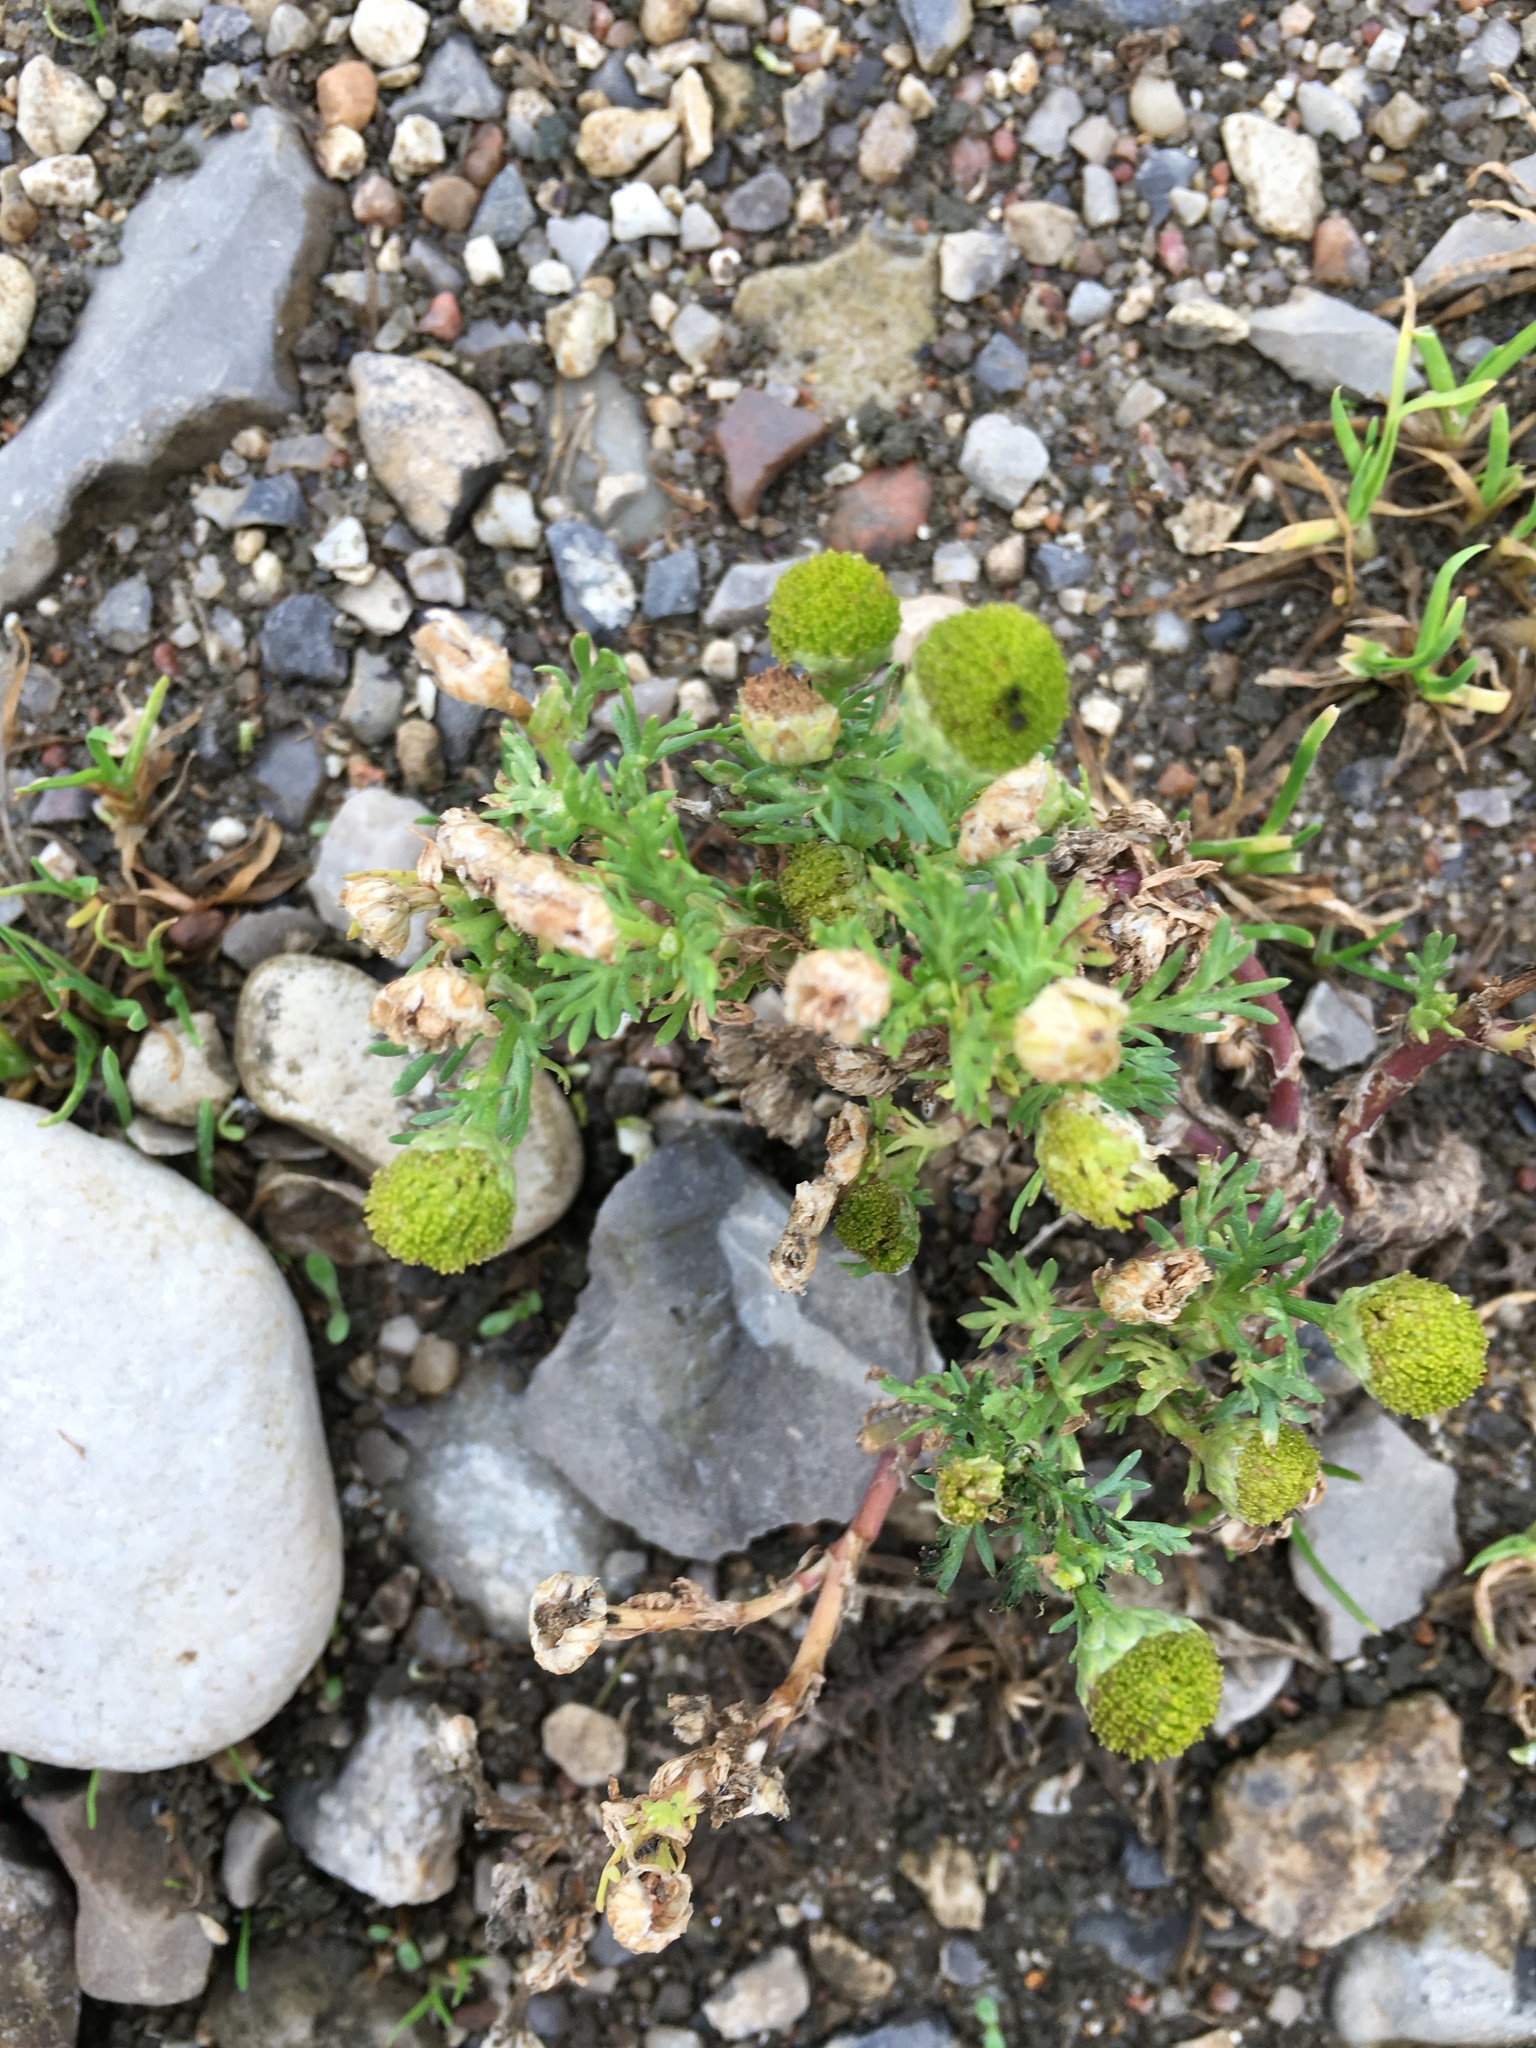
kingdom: Plantae
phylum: Tracheophyta
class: Magnoliopsida
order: Asterales
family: Asteraceae
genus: Matricaria
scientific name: Matricaria discoidea
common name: Disc mayweed
